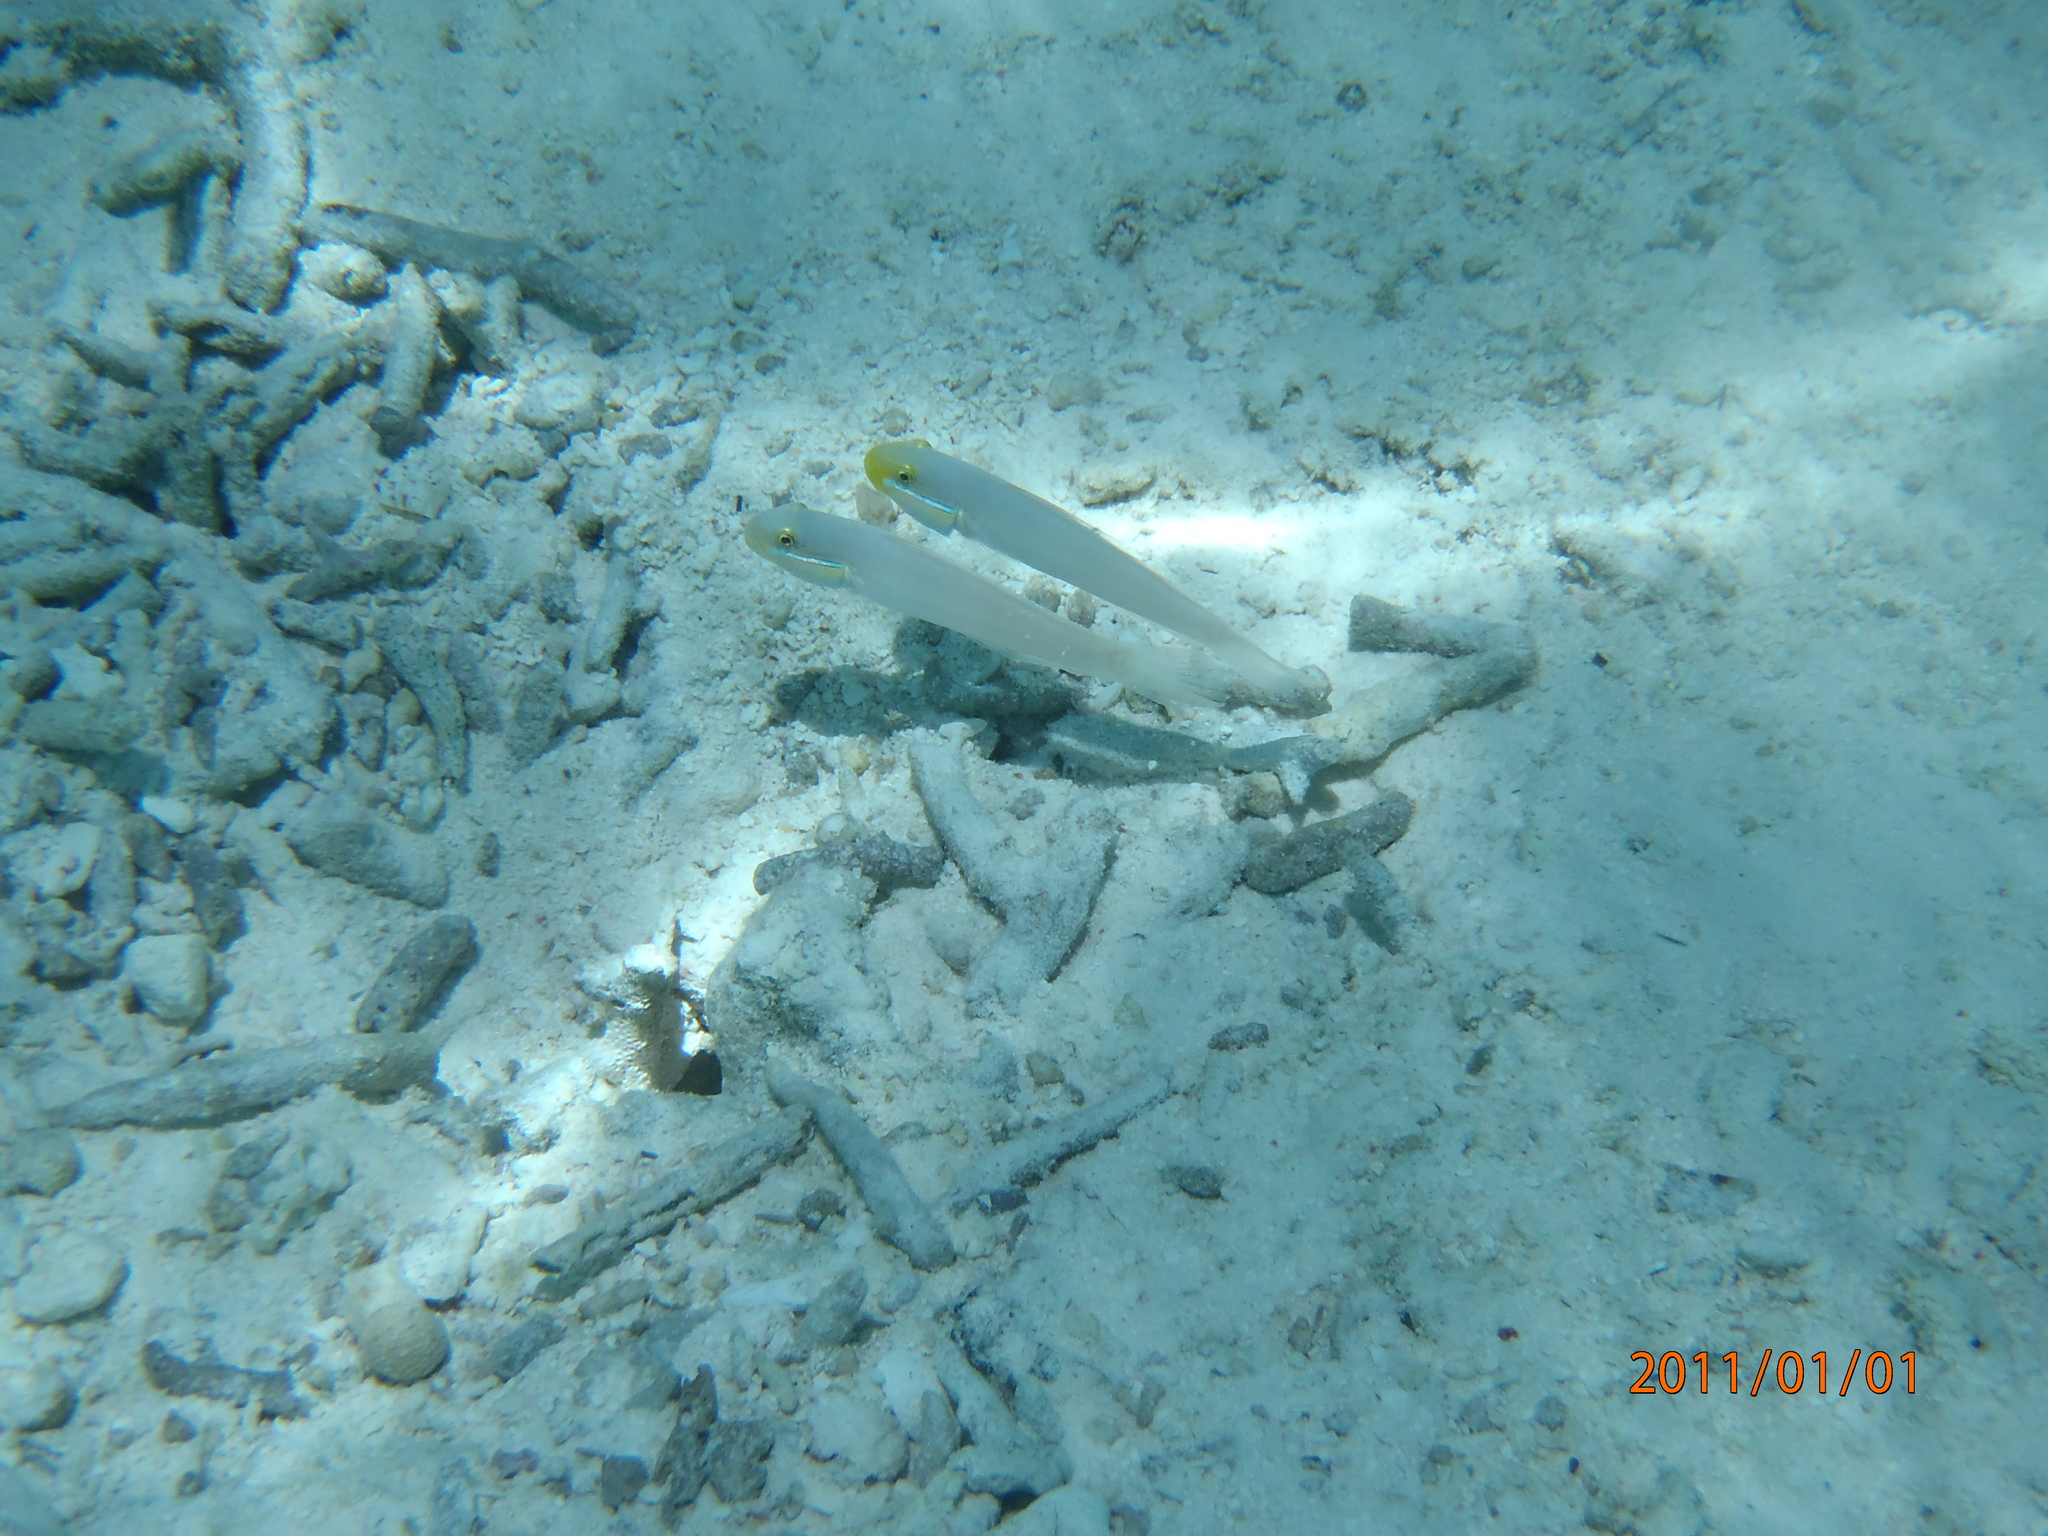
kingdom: Animalia
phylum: Chordata
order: Perciformes
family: Gobiidae
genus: Valenciennea
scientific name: Valenciennea strigata
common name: Blueband goby
